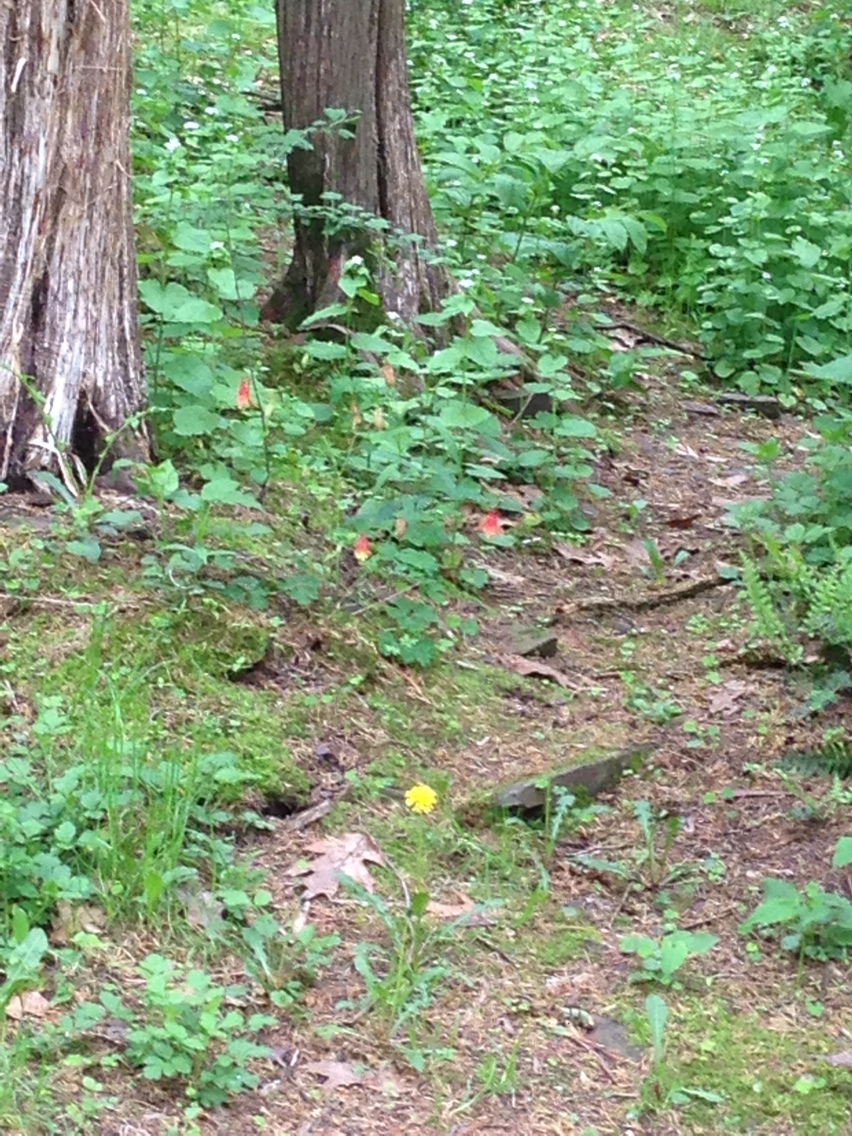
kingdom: Plantae
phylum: Tracheophyta
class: Magnoliopsida
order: Ranunculales
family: Ranunculaceae
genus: Aquilegia
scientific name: Aquilegia canadensis
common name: American columbine
